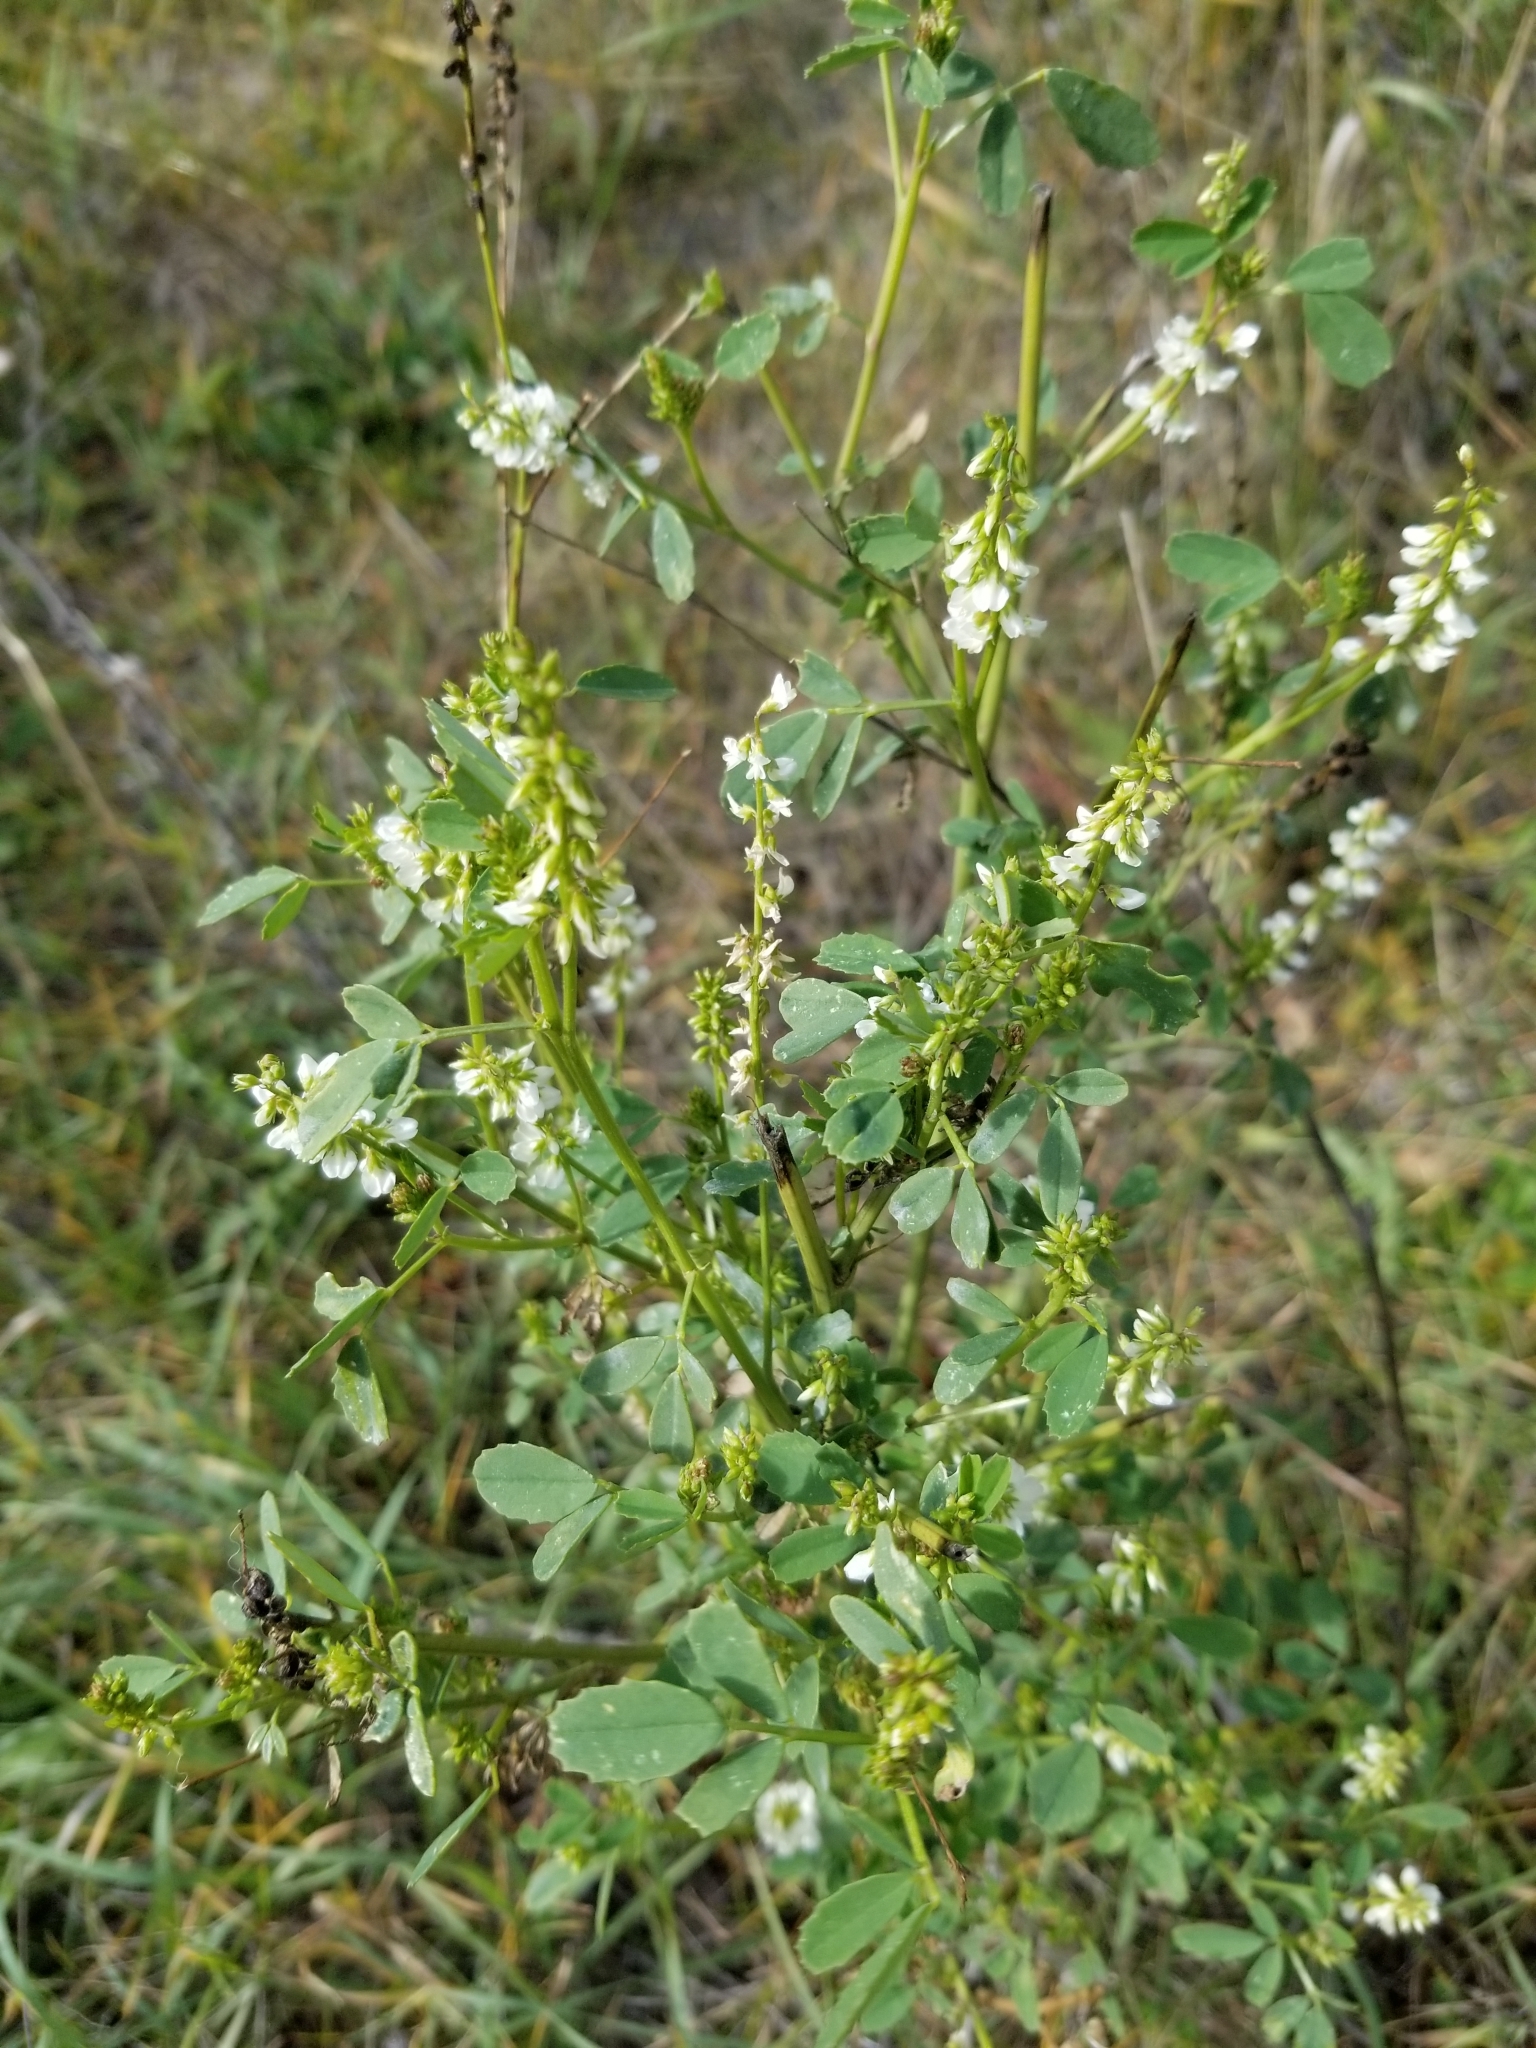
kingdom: Plantae
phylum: Tracheophyta
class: Magnoliopsida
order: Fabales
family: Fabaceae
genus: Melilotus
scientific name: Melilotus albus
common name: White melilot
